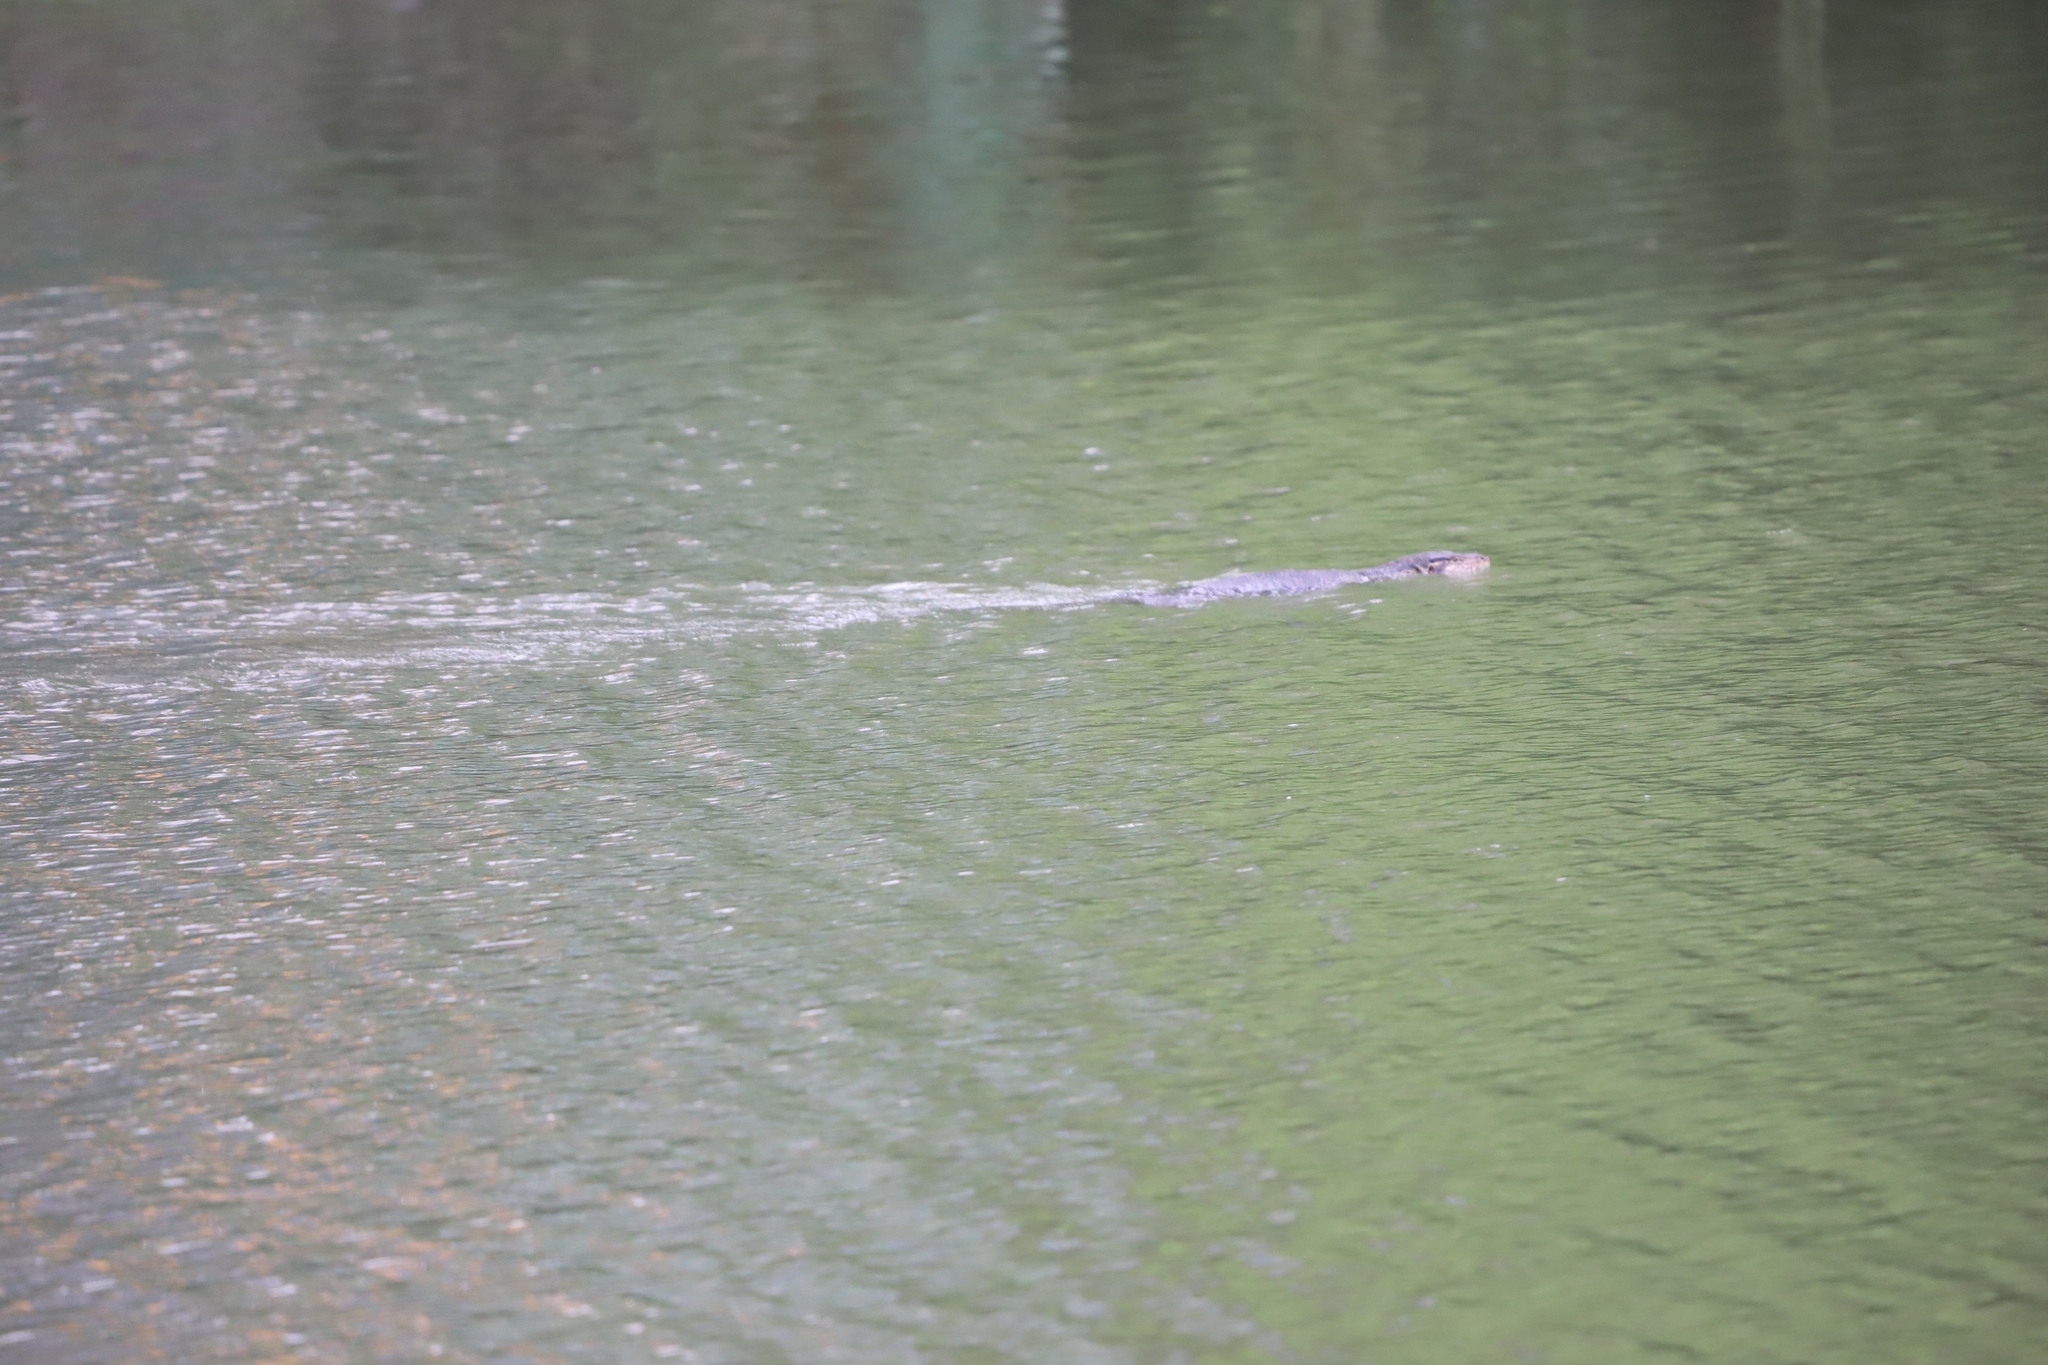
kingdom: Animalia
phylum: Chordata
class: Squamata
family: Varanidae
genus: Varanus
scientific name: Varanus salvator
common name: Common water monitor
